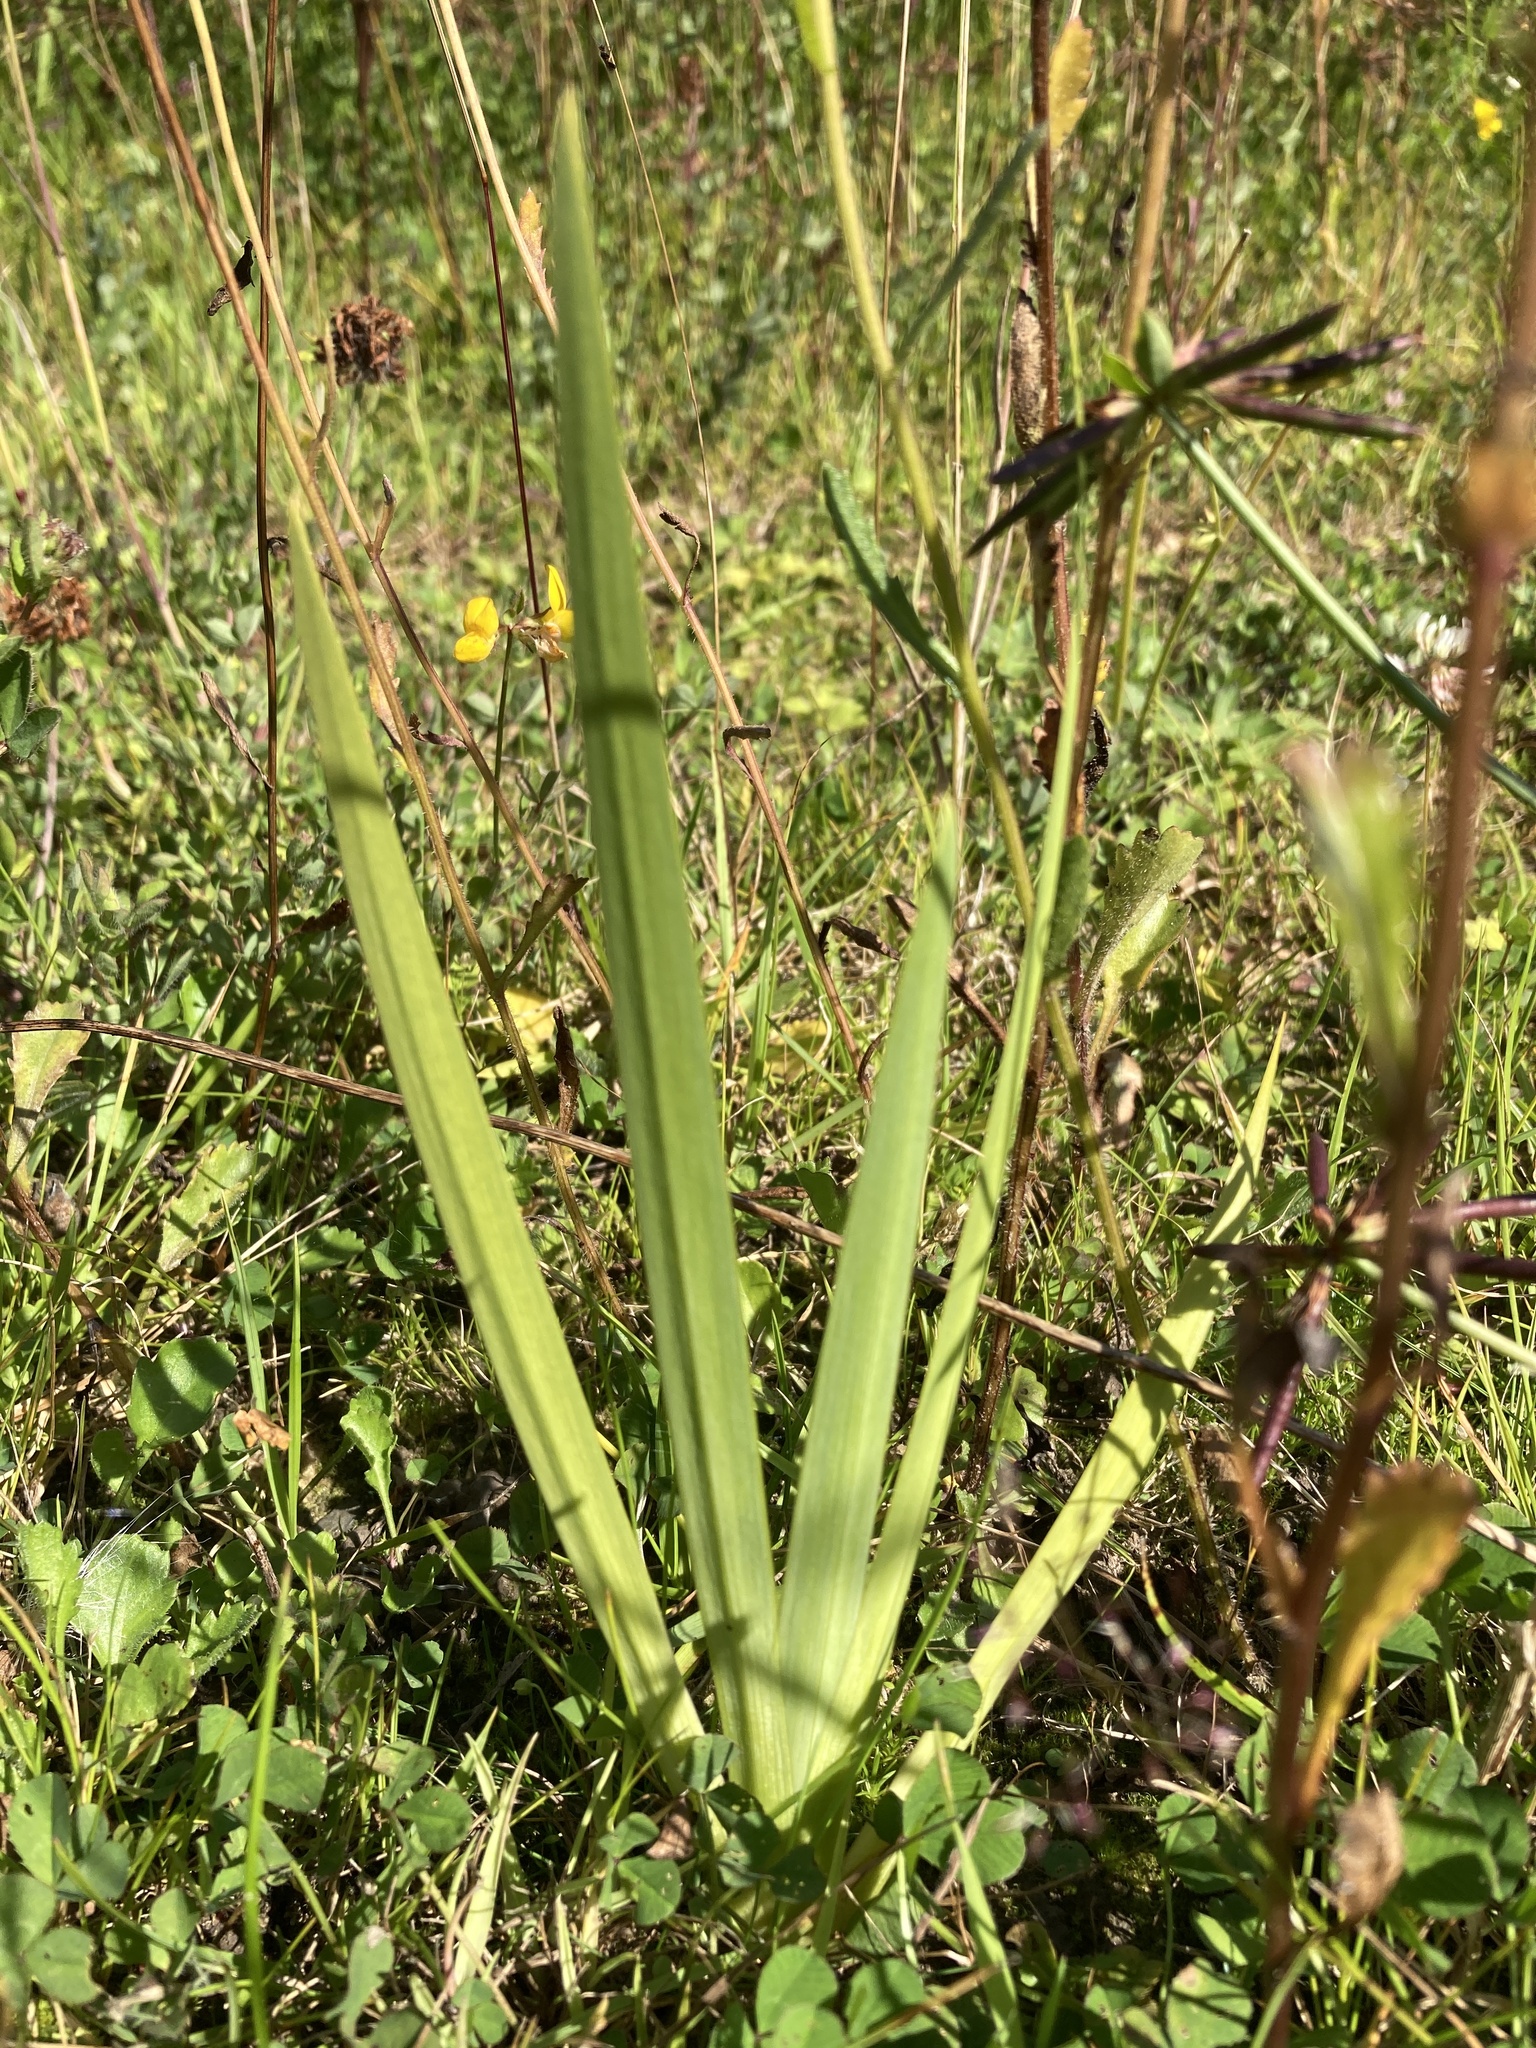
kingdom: Plantae
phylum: Tracheophyta
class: Liliopsida
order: Asparagales
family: Iridaceae
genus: Iris
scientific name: Iris pseudacorus
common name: Yellow flag
